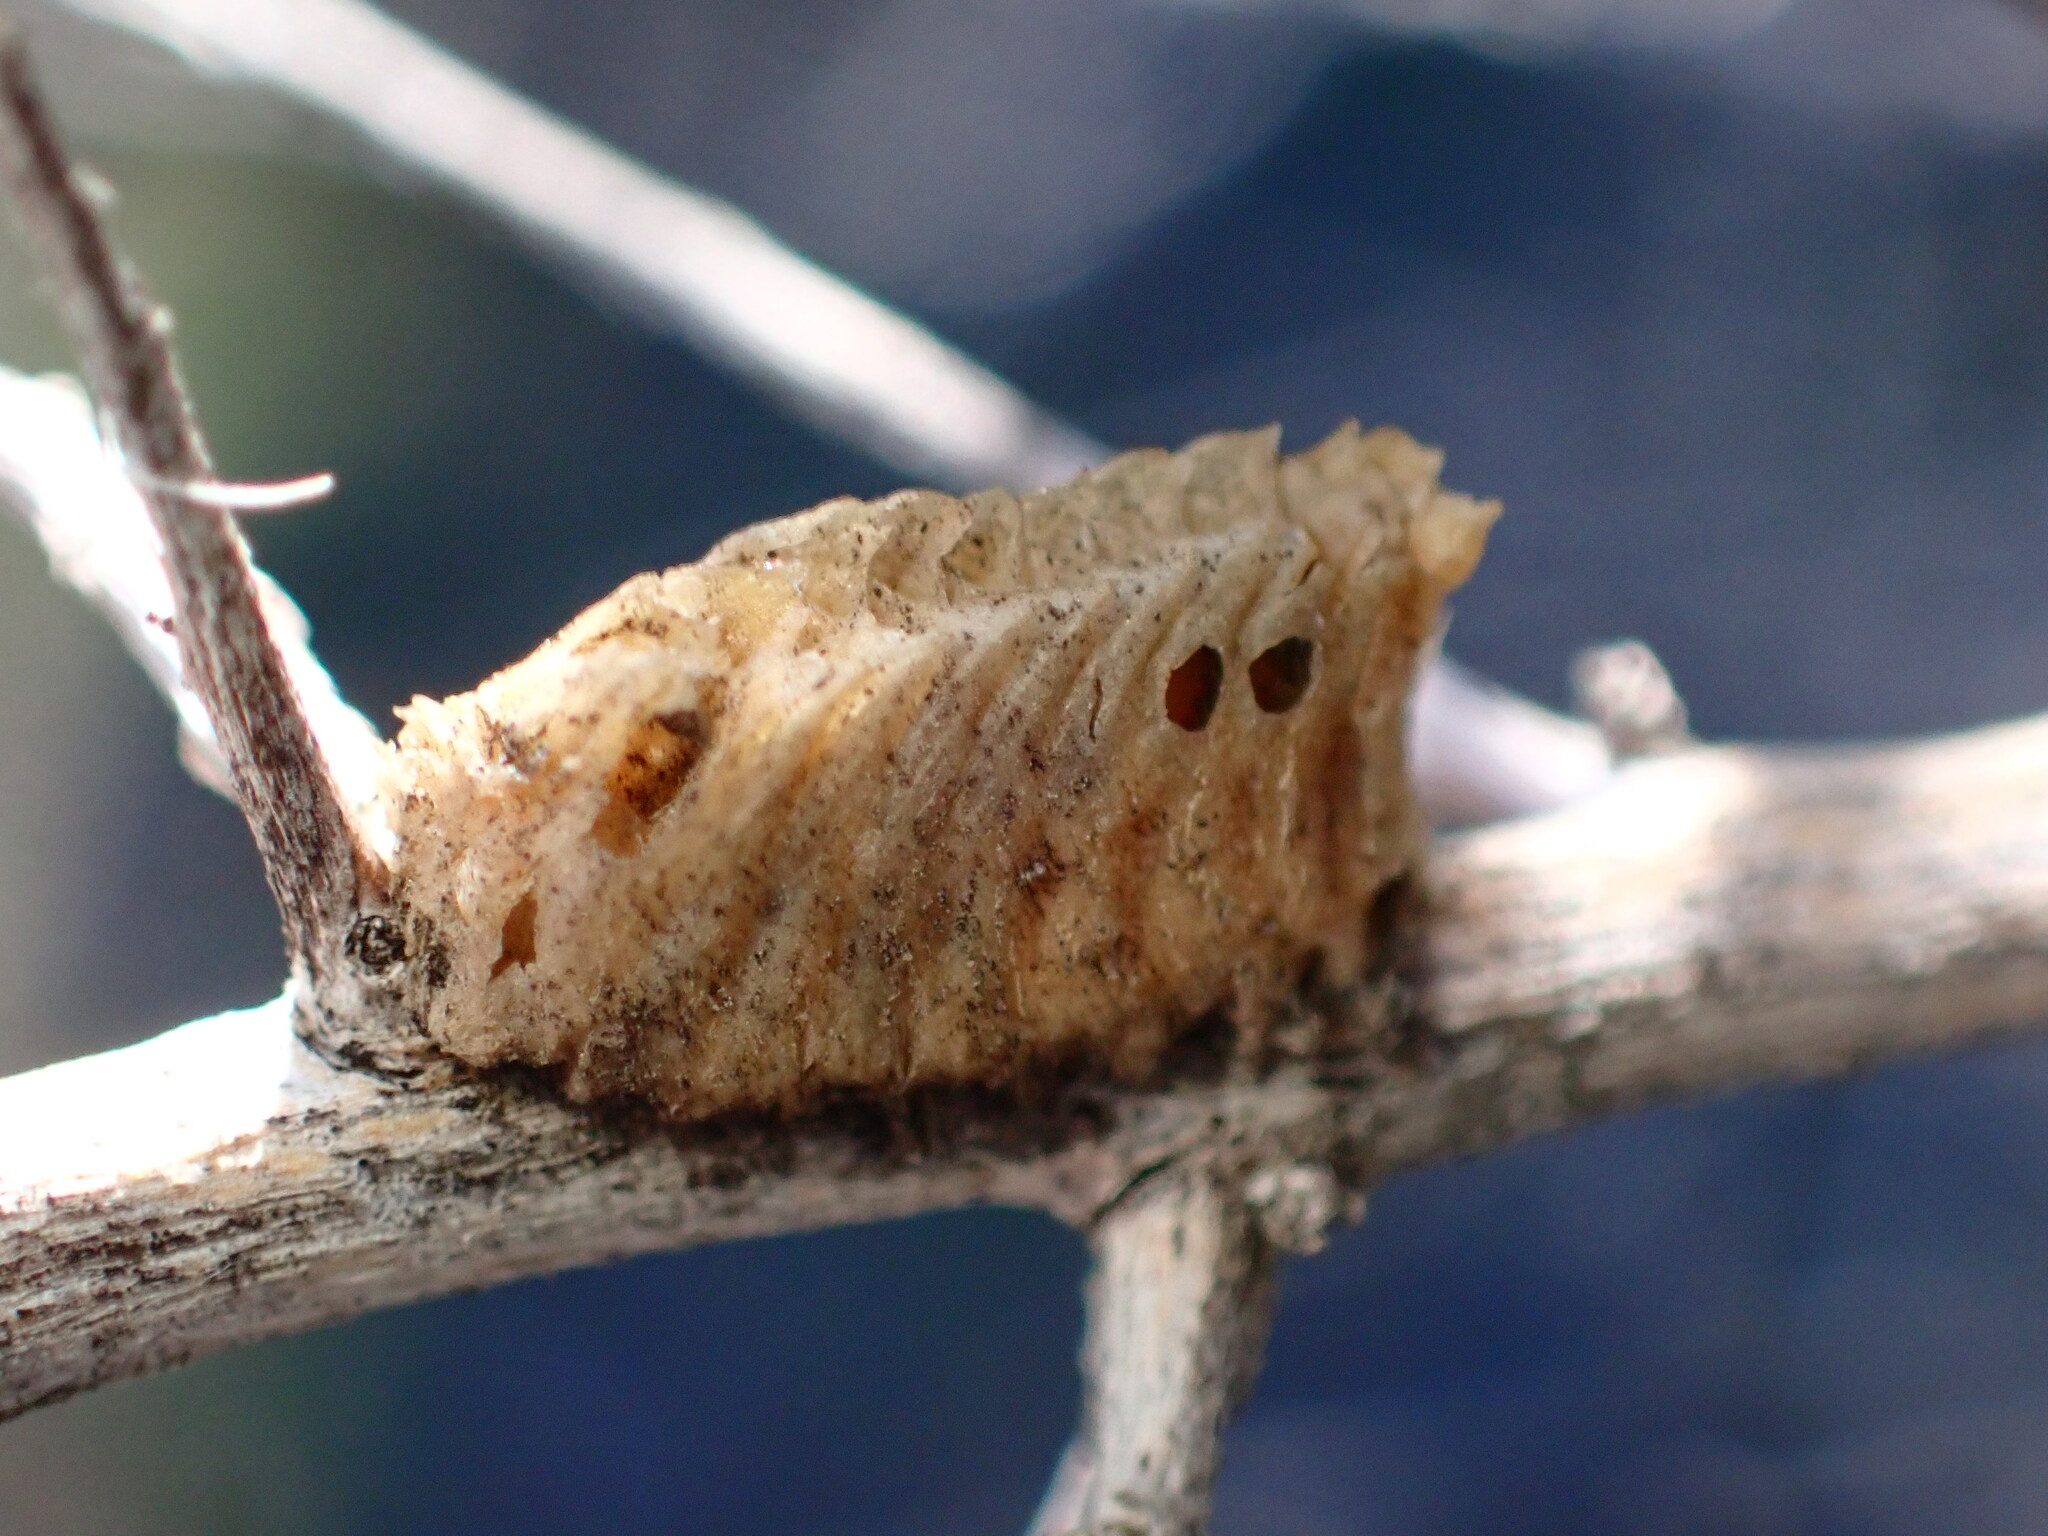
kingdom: Animalia
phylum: Arthropoda
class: Insecta
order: Mantodea
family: Eremiaphilidae
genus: Iris
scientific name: Iris oratoria
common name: Mediterranean mantis
